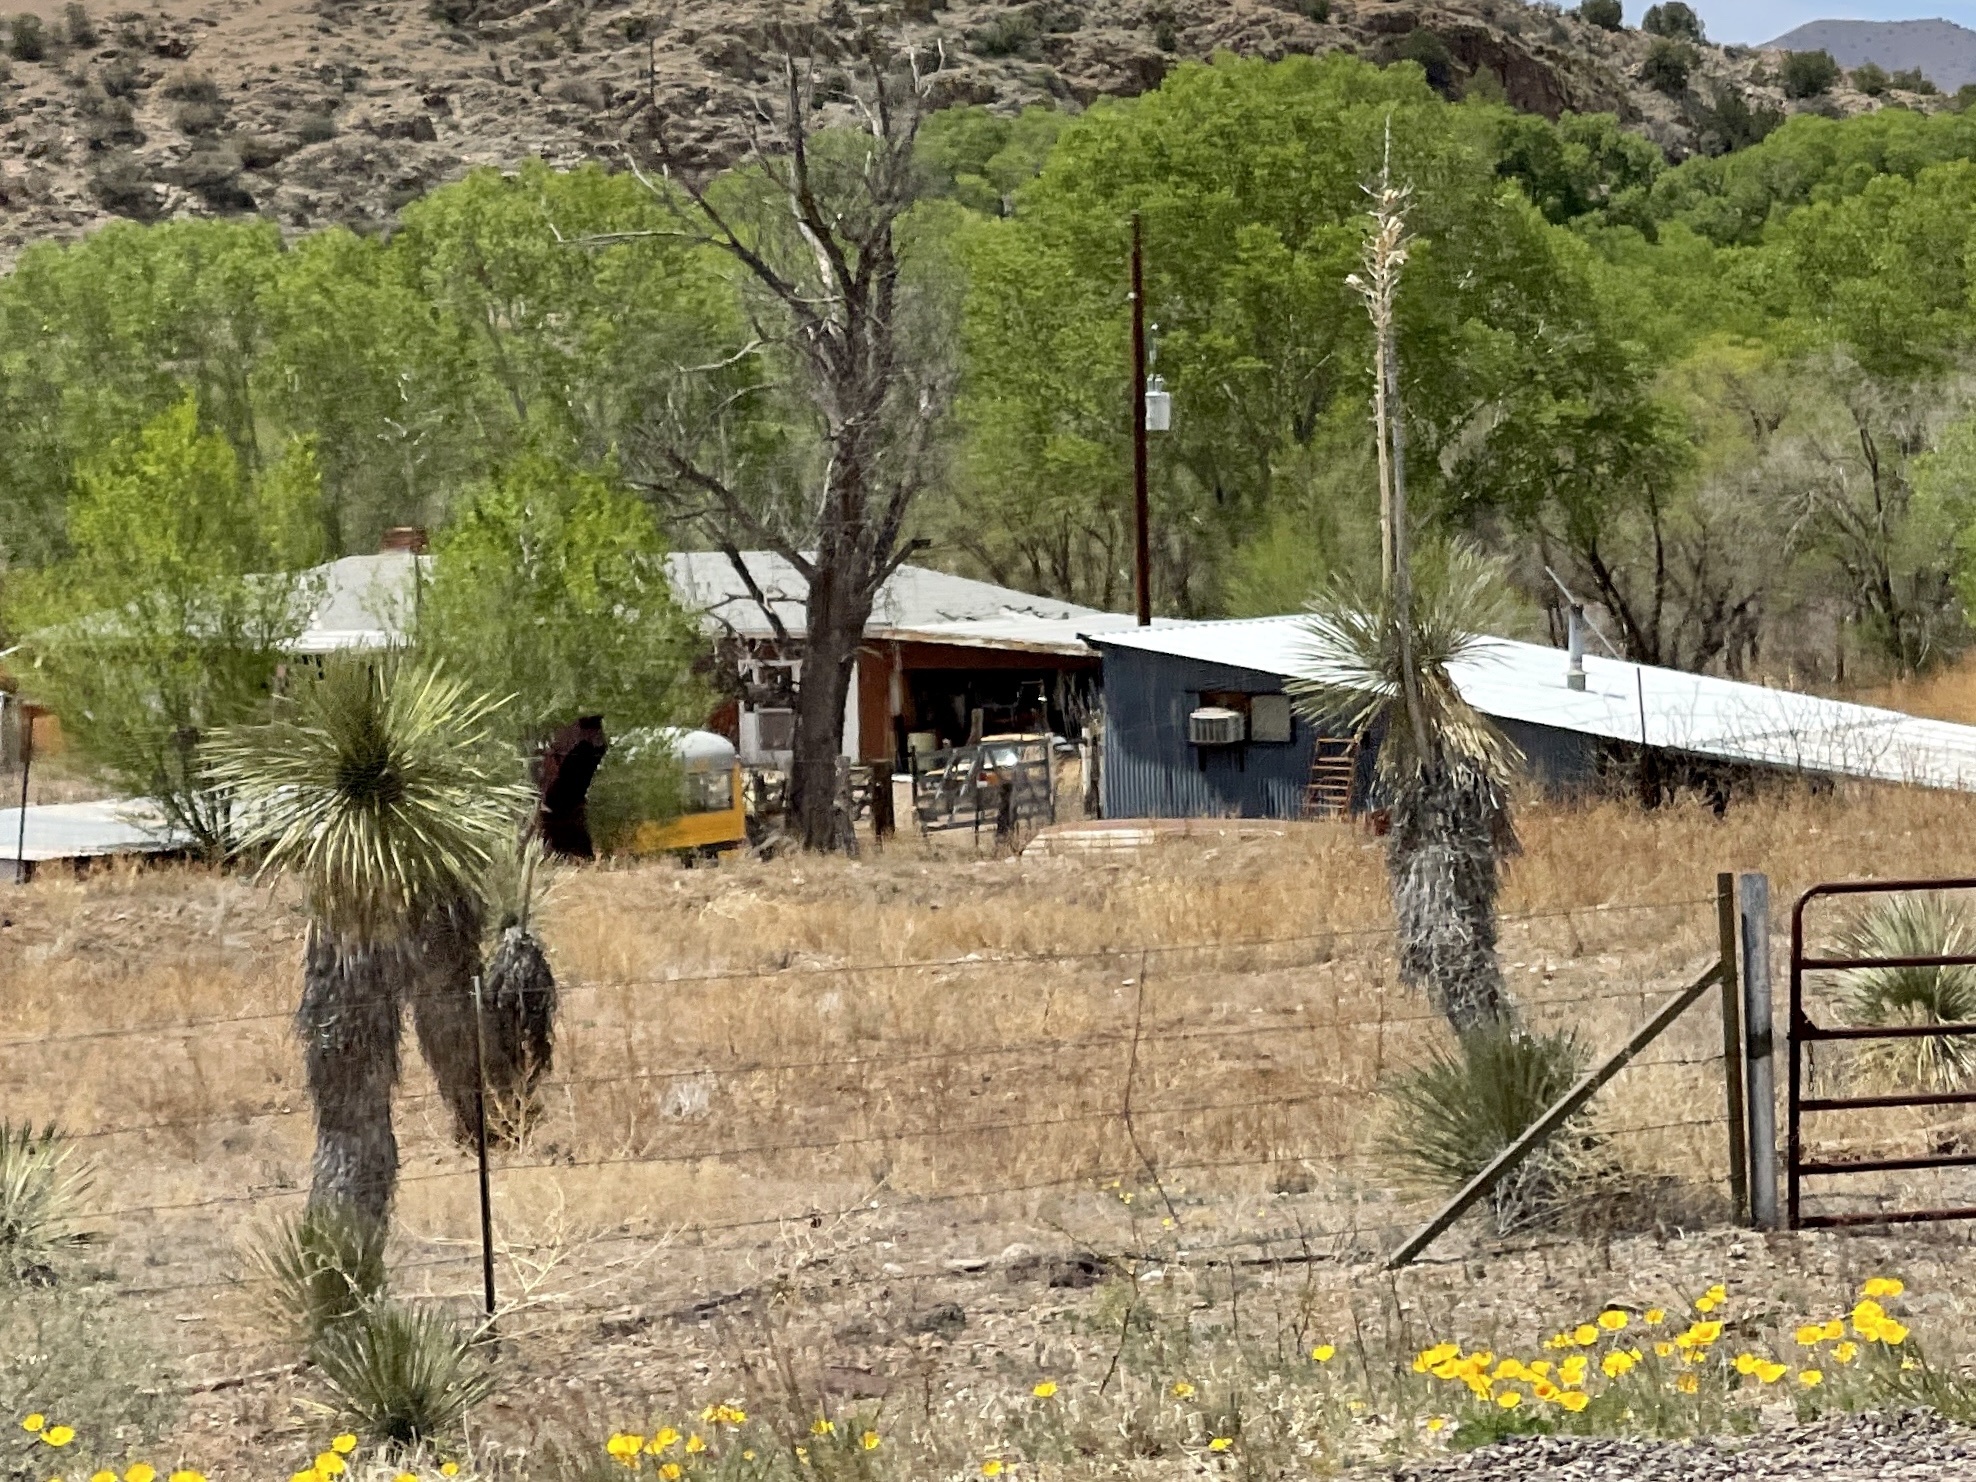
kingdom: Plantae
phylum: Tracheophyta
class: Liliopsida
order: Asparagales
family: Asparagaceae
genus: Yucca
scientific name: Yucca elata
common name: Palmella
